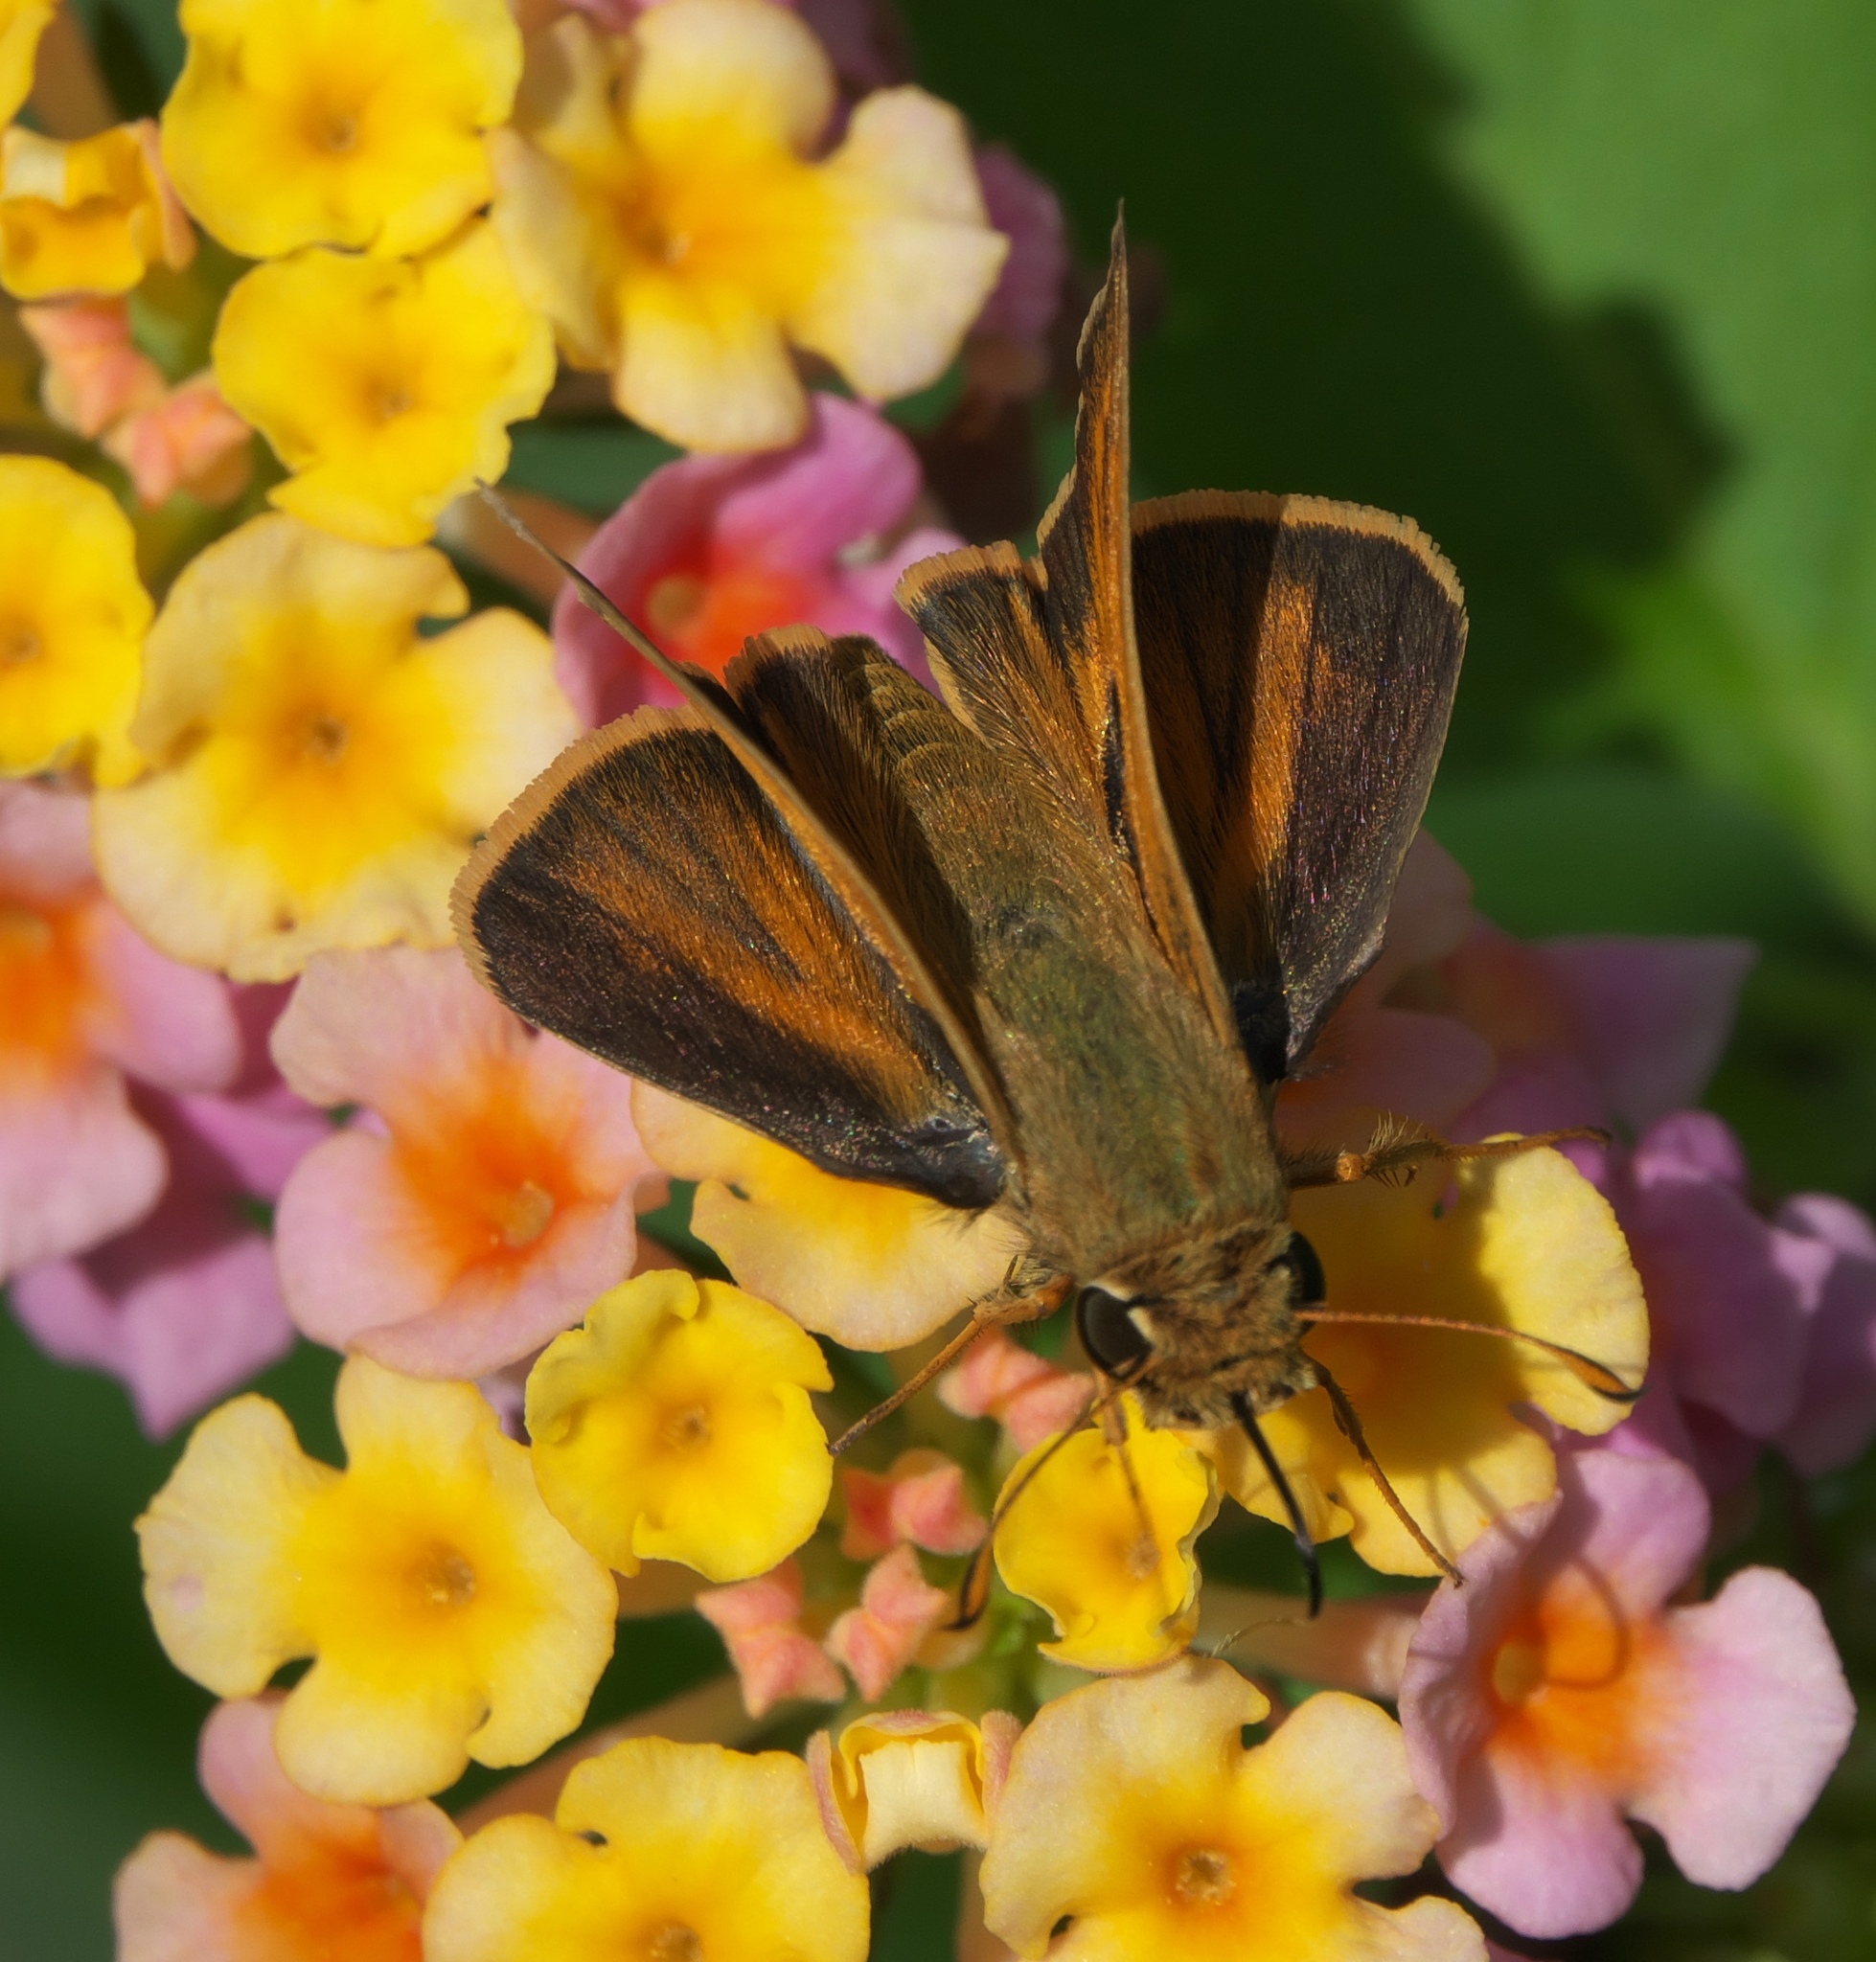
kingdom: Animalia
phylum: Arthropoda
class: Insecta
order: Lepidoptera
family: Hesperiidae
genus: Atalopedes
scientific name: Atalopedes
